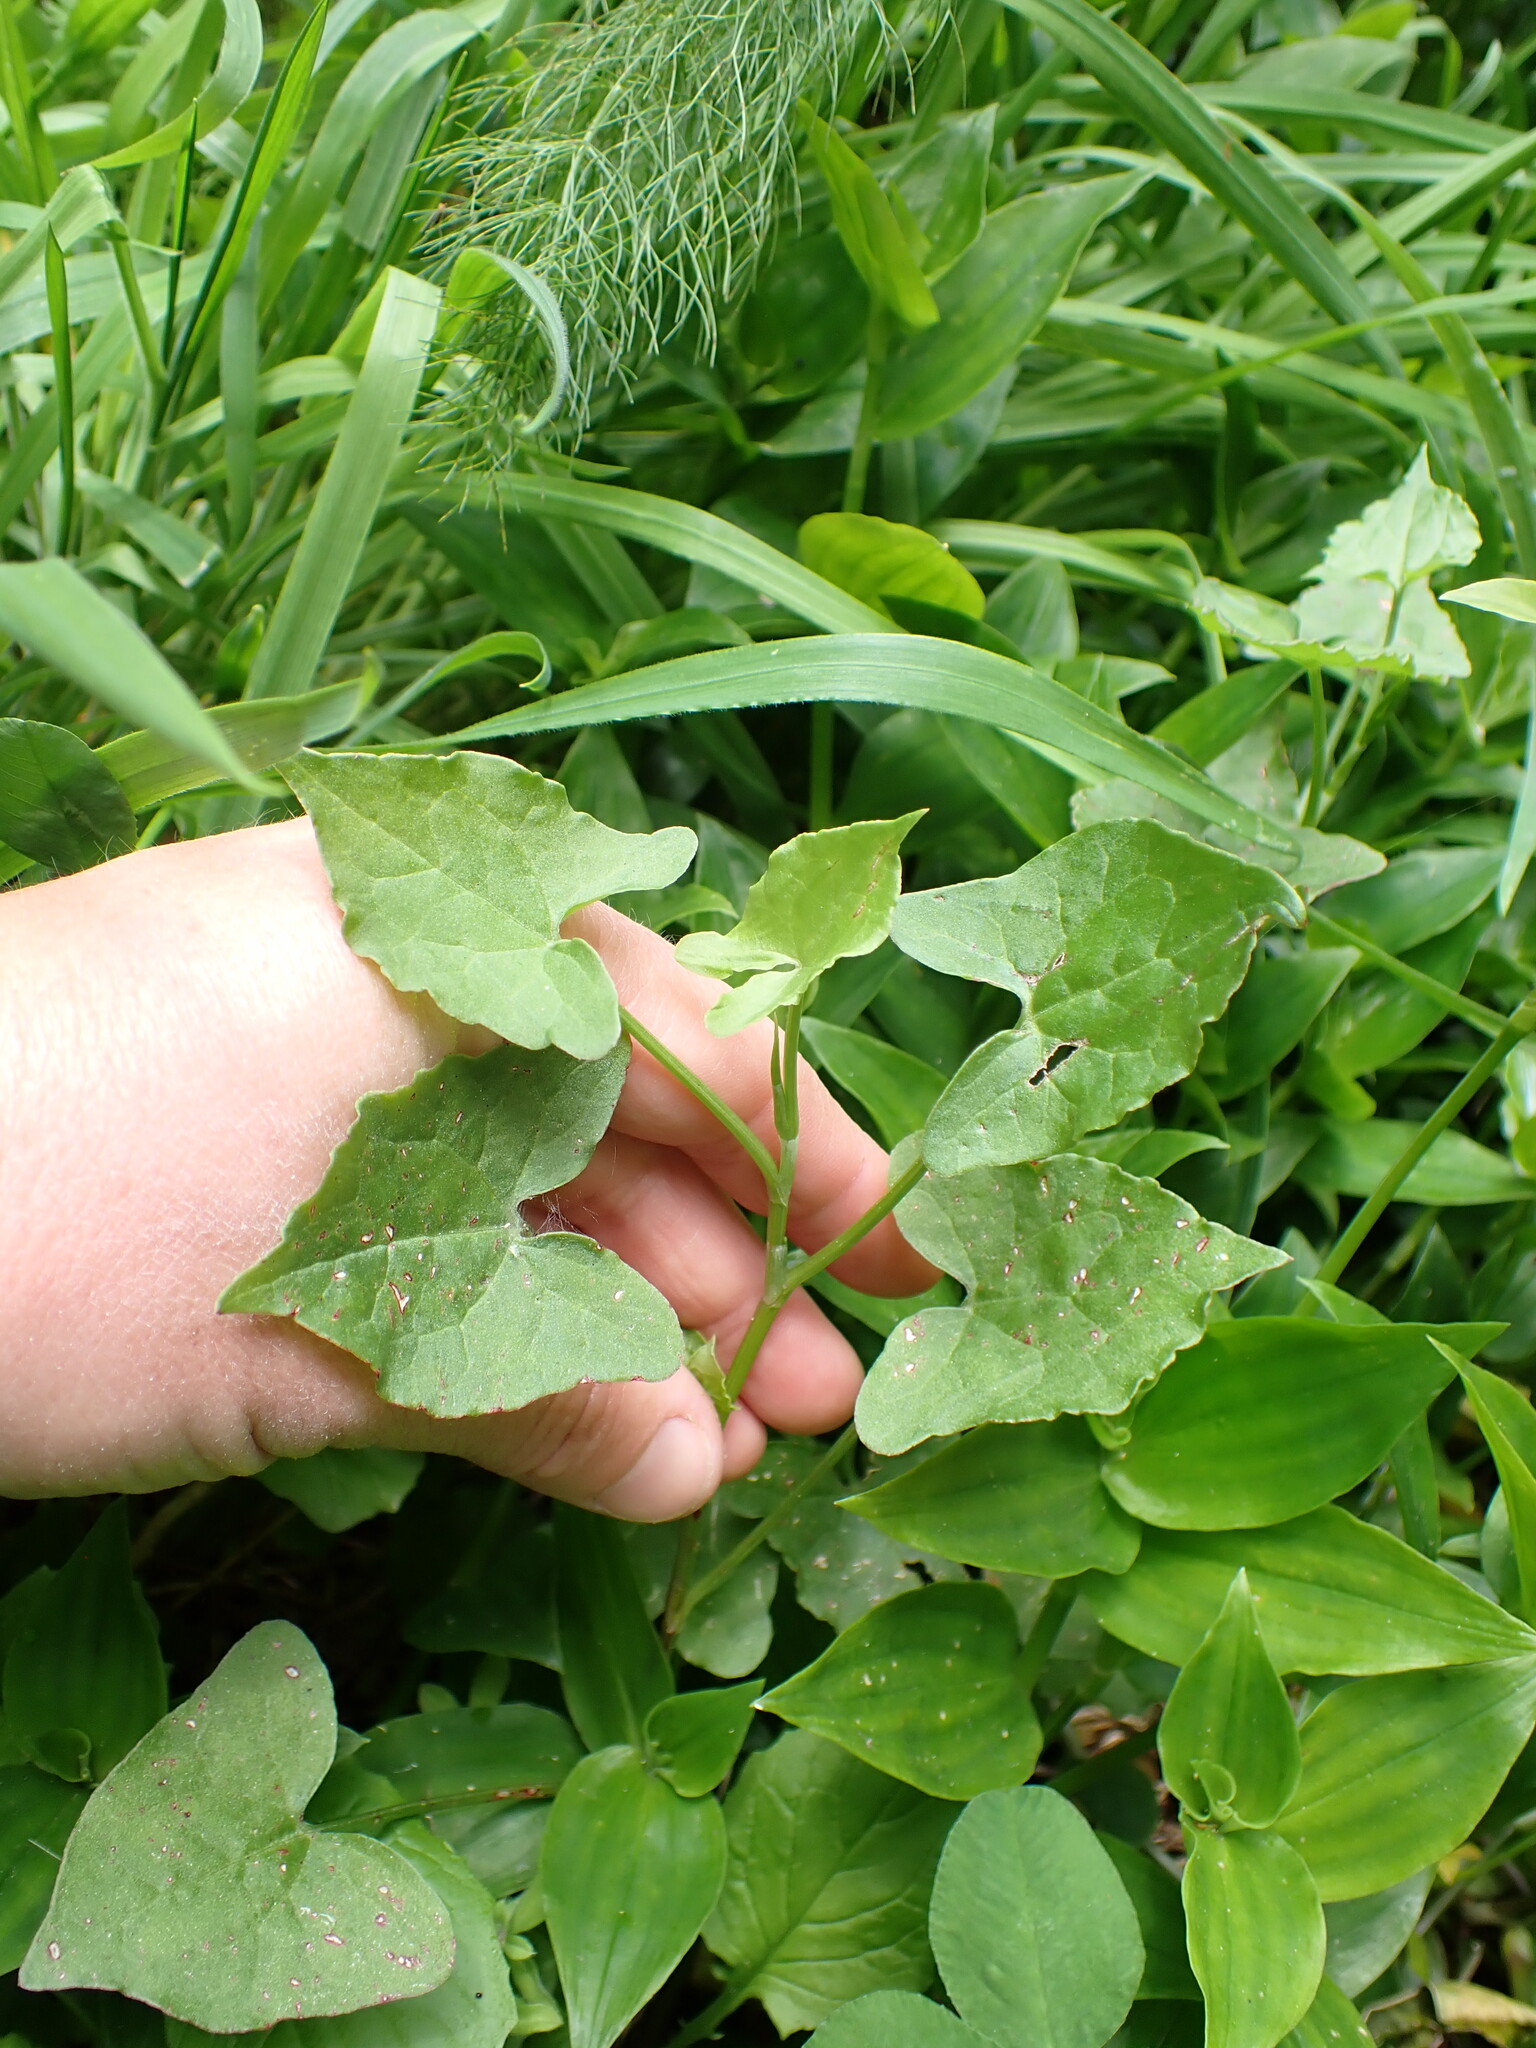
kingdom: Plantae
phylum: Tracheophyta
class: Magnoliopsida
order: Caryophyllales
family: Polygonaceae
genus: Rumex
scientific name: Rumex sagittatus
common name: Climbing dock
